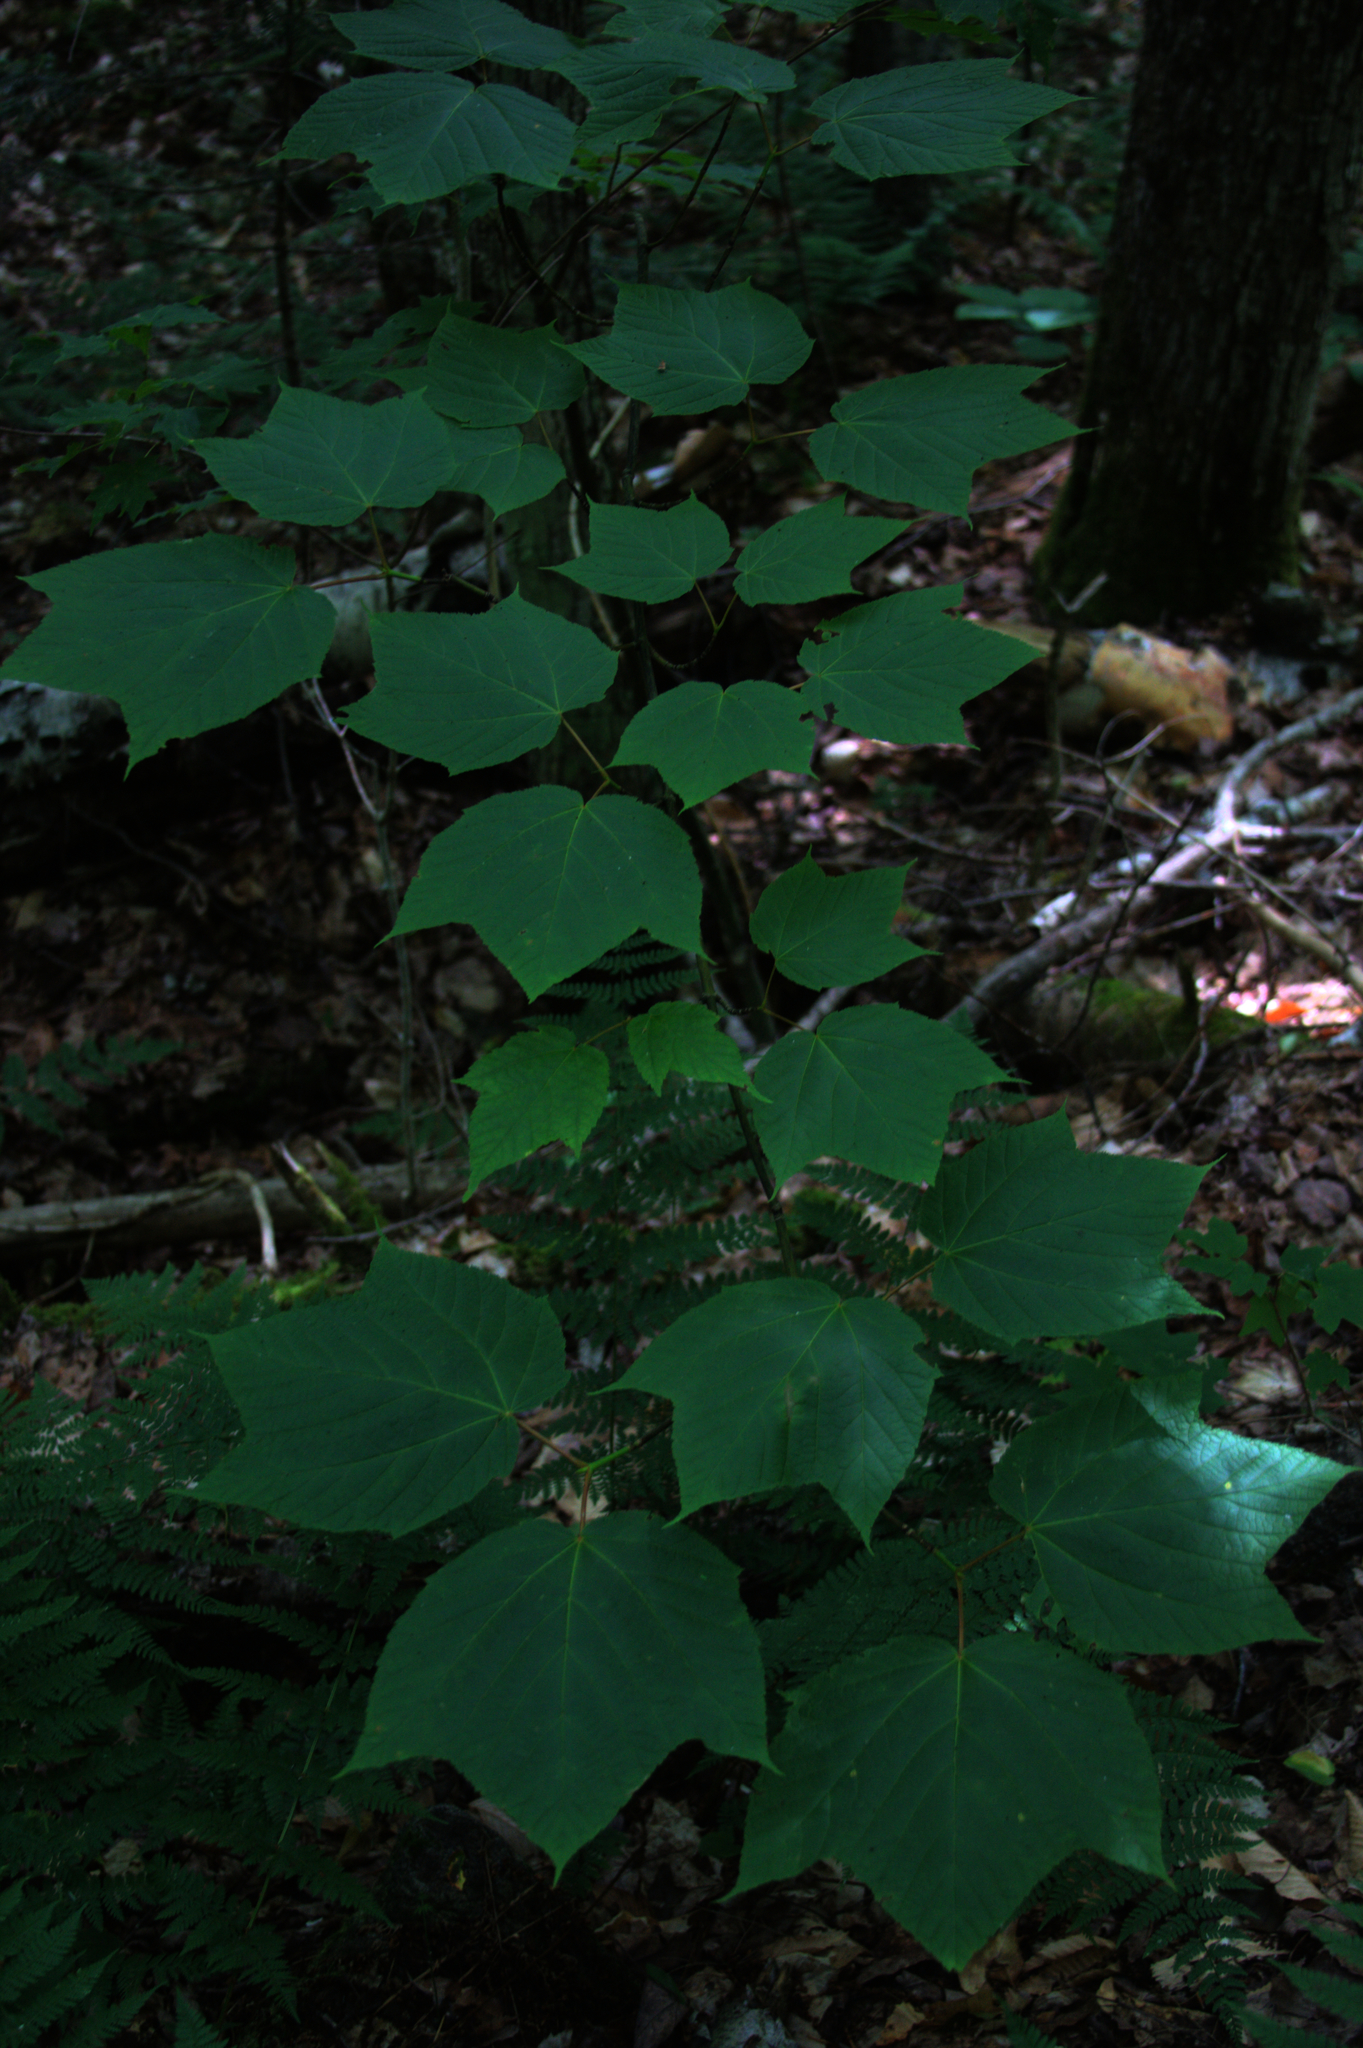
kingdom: Plantae
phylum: Tracheophyta
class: Magnoliopsida
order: Sapindales
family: Sapindaceae
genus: Acer
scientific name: Acer pensylvanicum
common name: Moosewood
